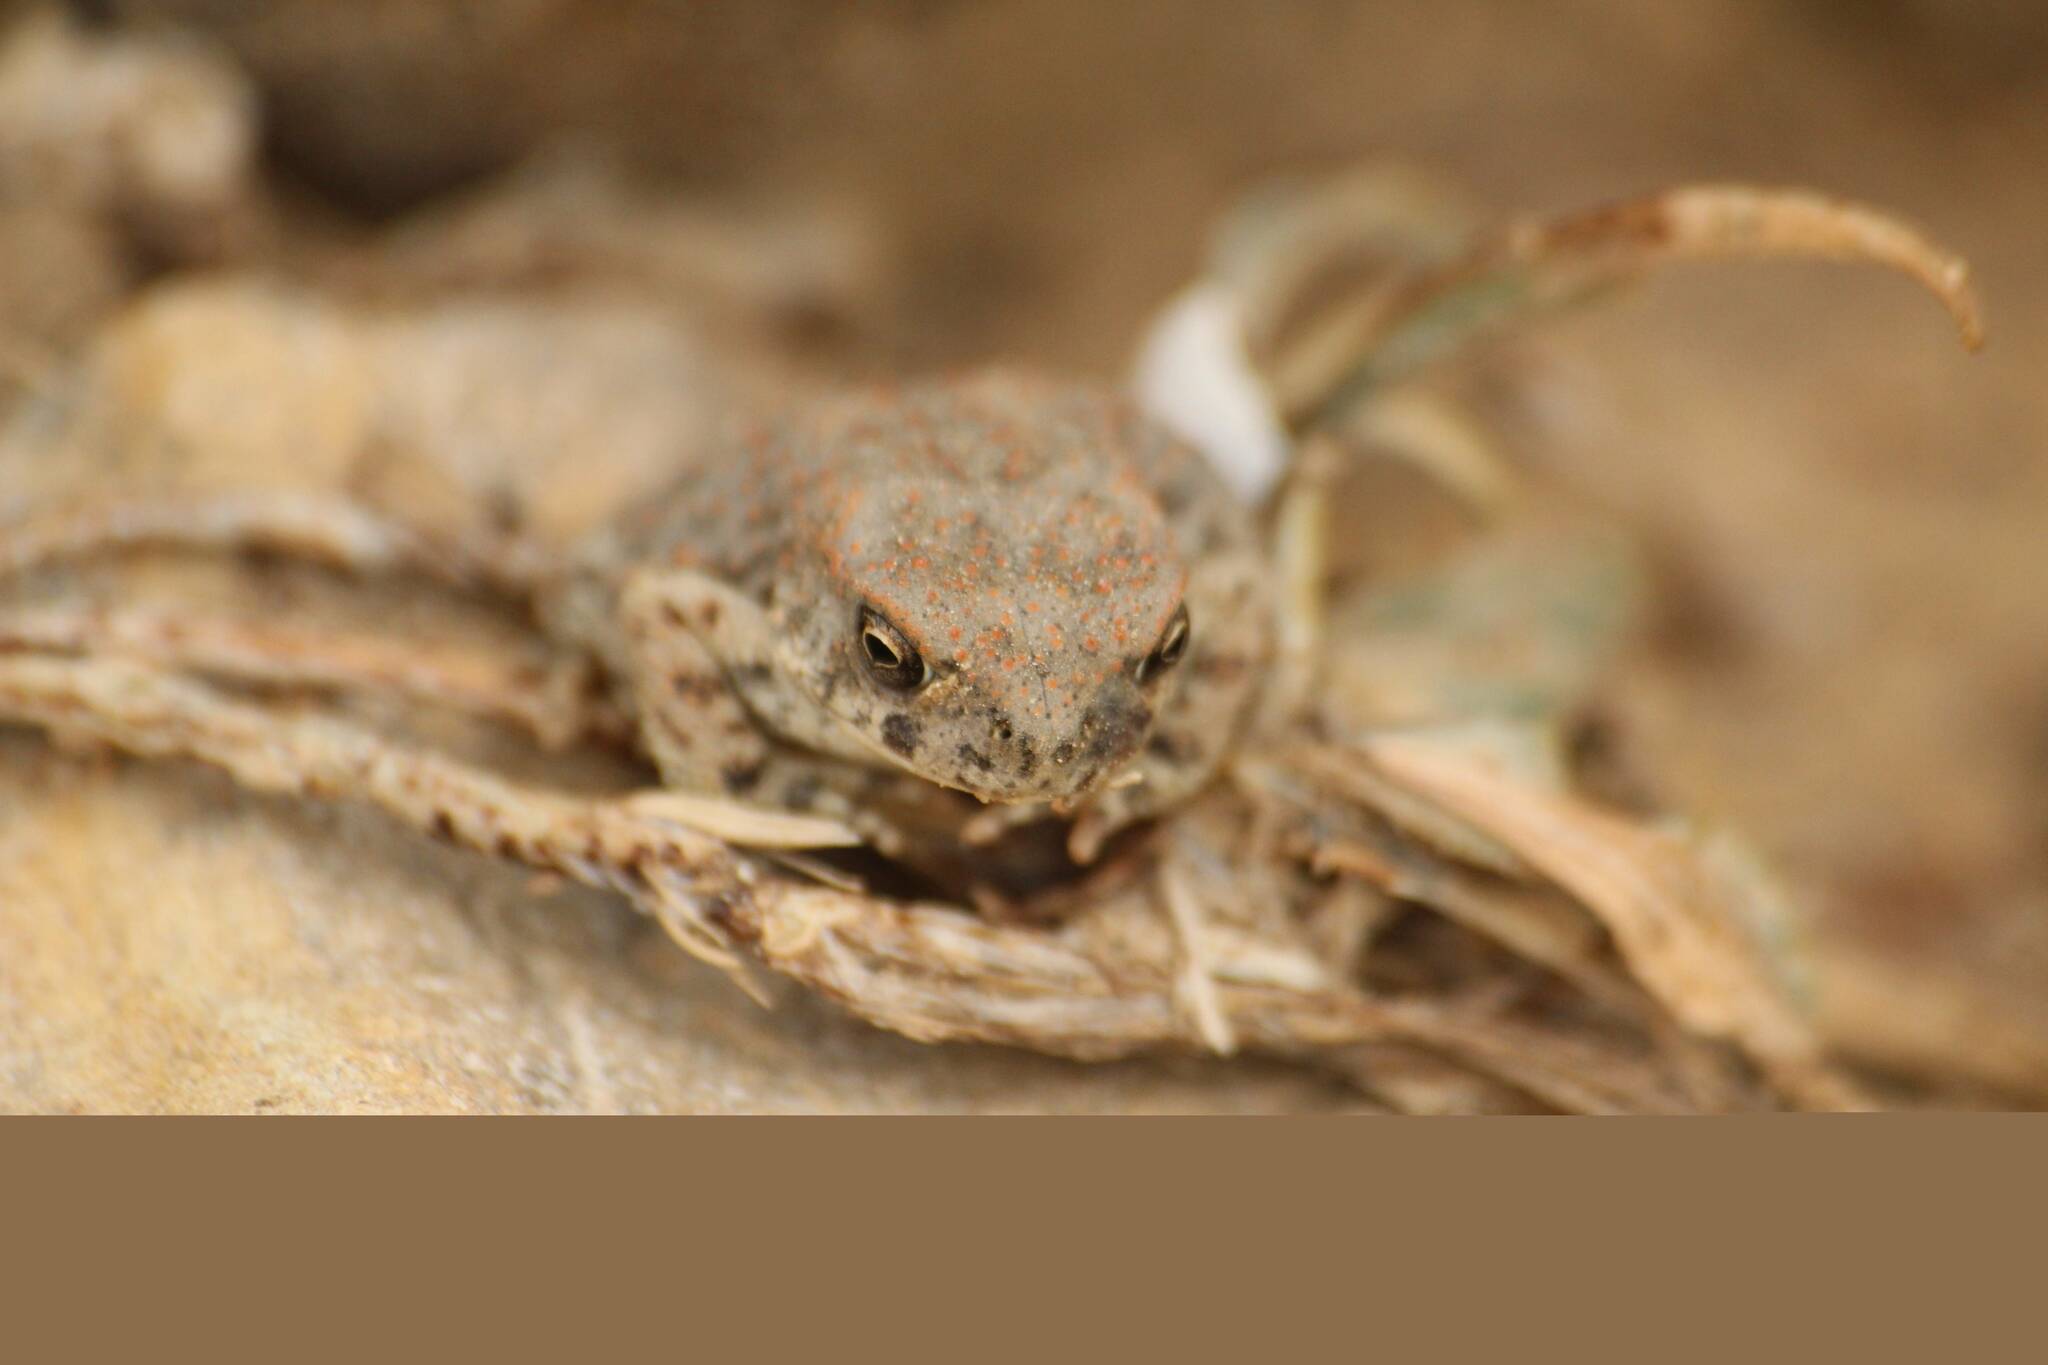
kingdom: Animalia
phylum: Chordata
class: Amphibia
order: Anura
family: Bufonidae
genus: Sclerophrys
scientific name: Sclerophrys mauritanica
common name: Berber toad
